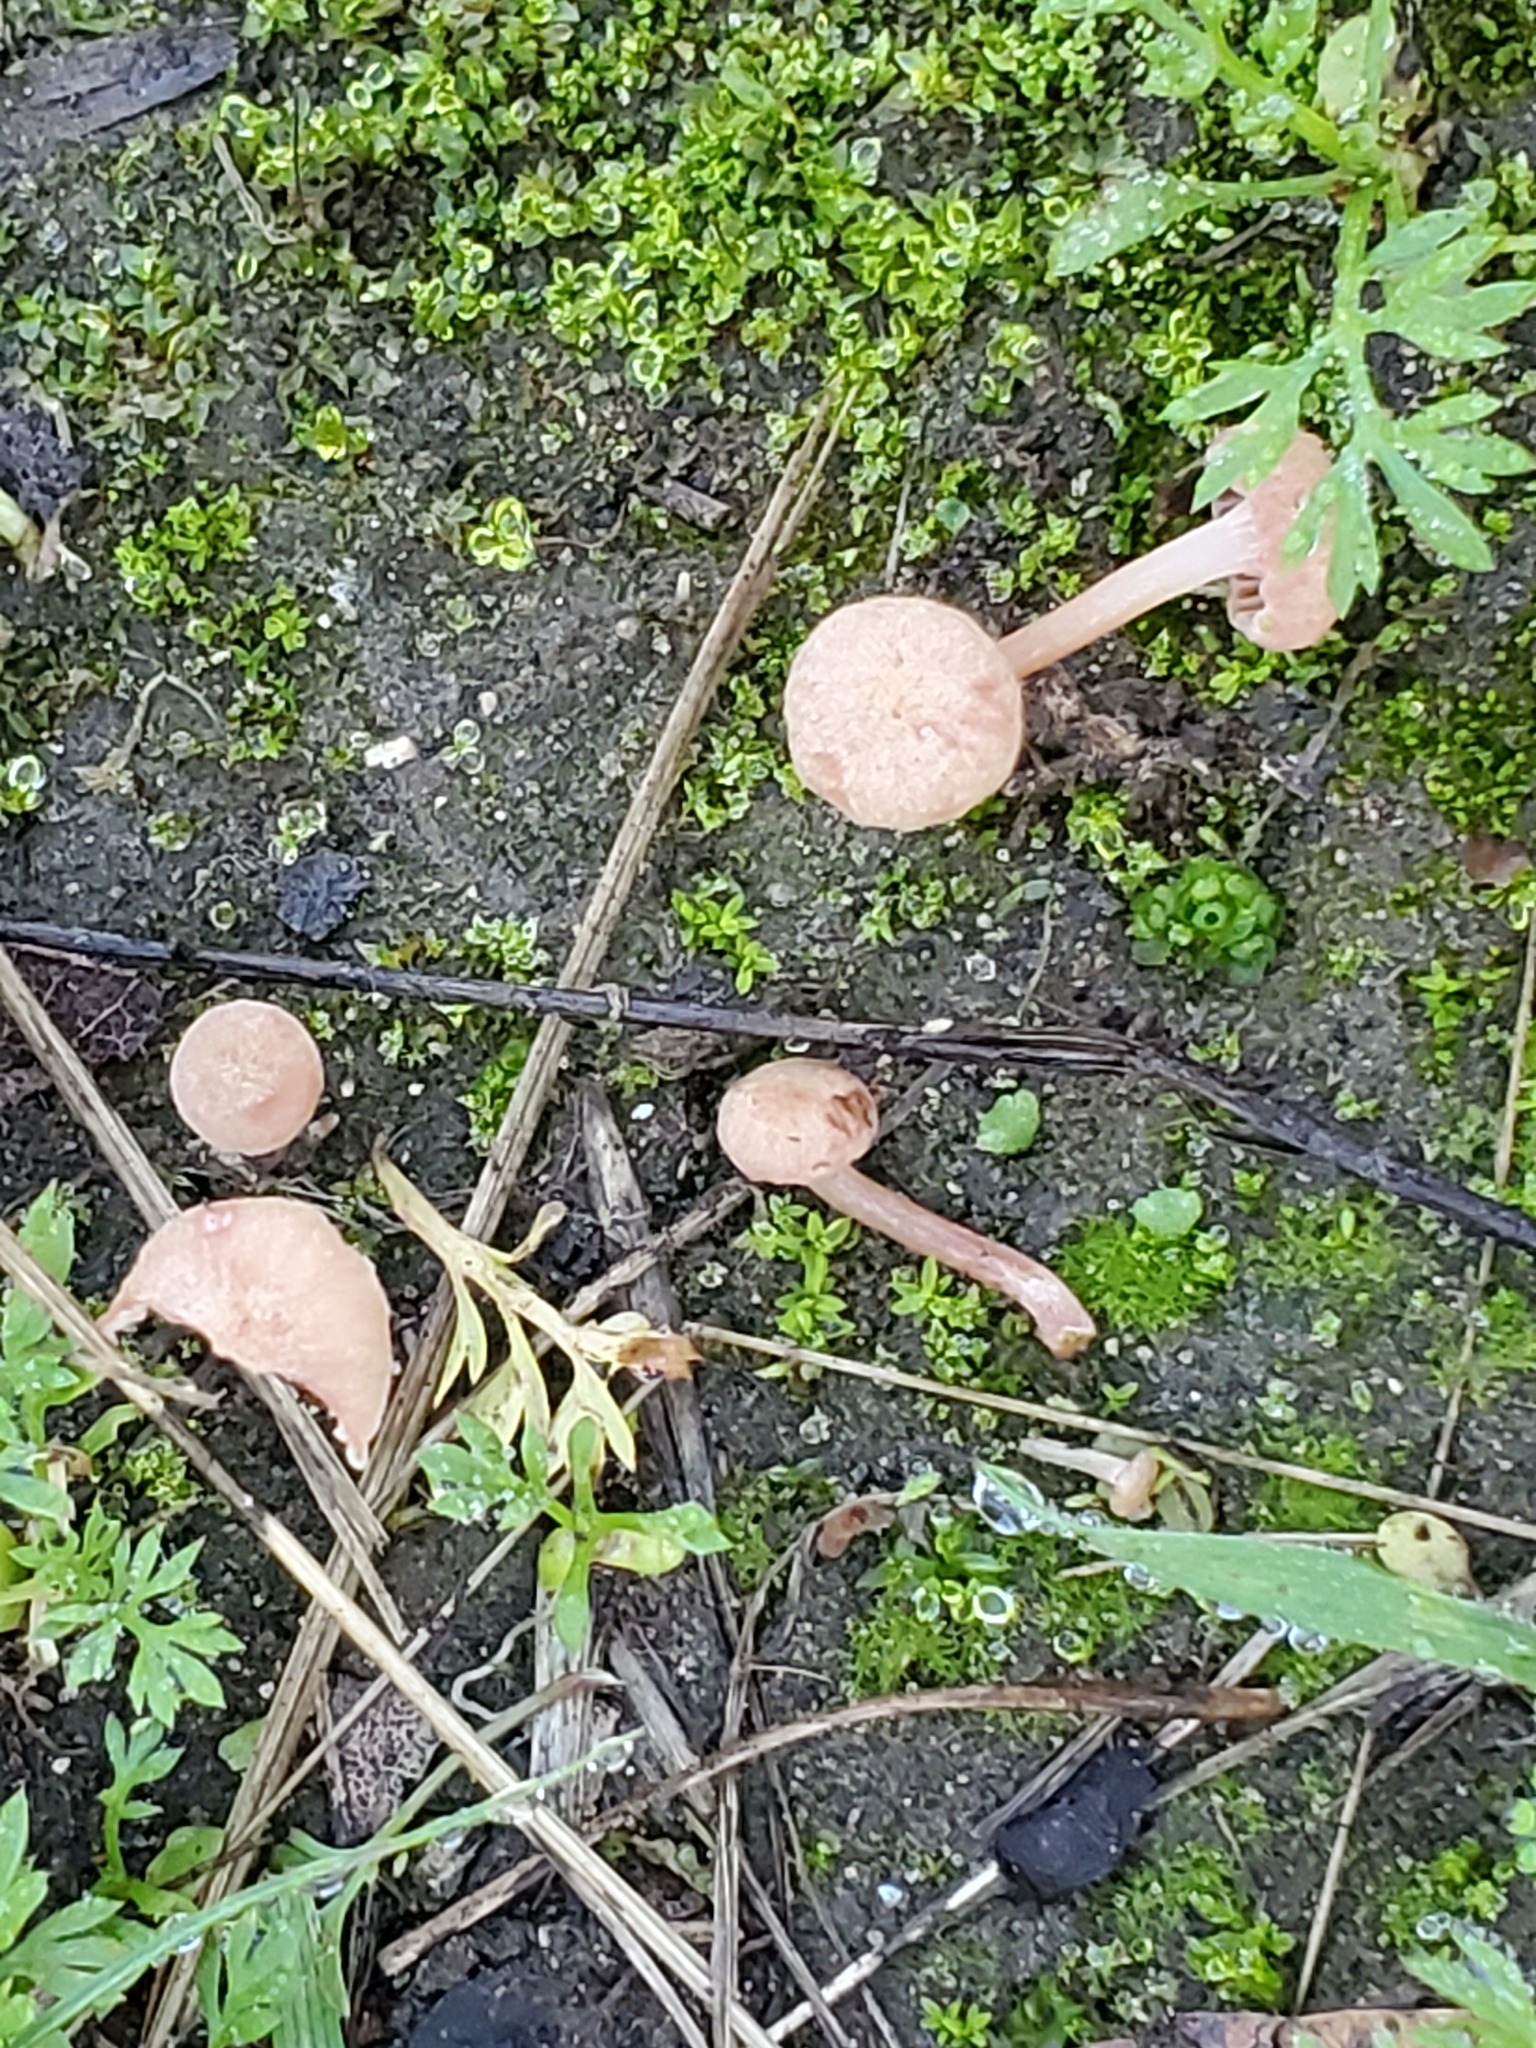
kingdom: Fungi
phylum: Basidiomycota
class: Agaricomycetes
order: Hymenochaetales
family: Rickenellaceae
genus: Contumyces
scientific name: Contumyces rosellus
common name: Rosy navel
